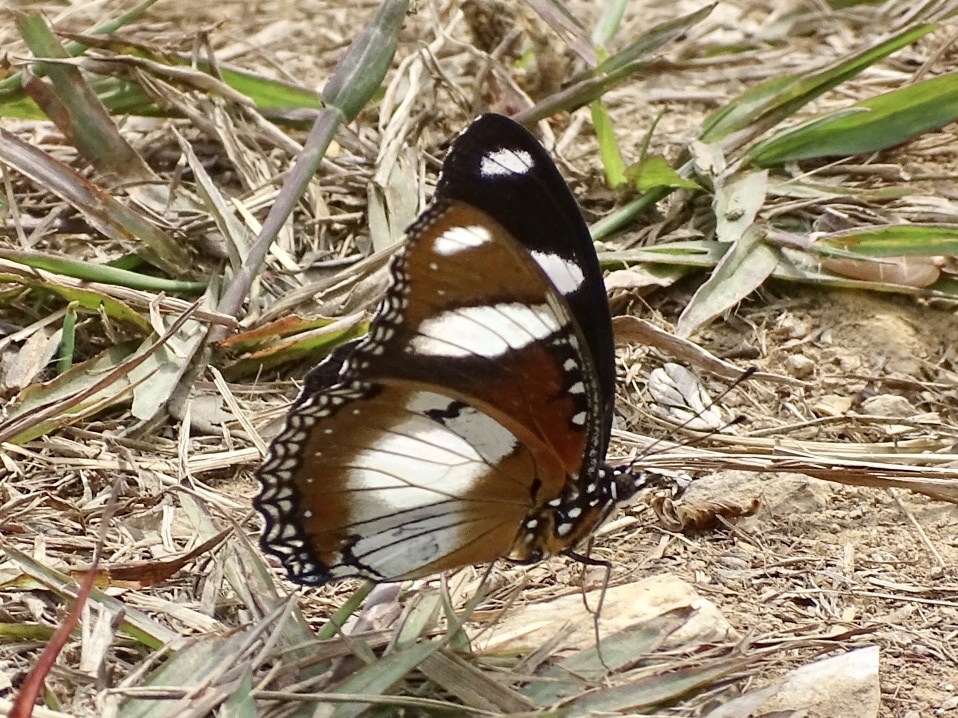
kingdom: Animalia
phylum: Arthropoda
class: Insecta
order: Lepidoptera
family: Nymphalidae
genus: Hypolimnas
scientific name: Hypolimnas misippus
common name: False plain tiger
